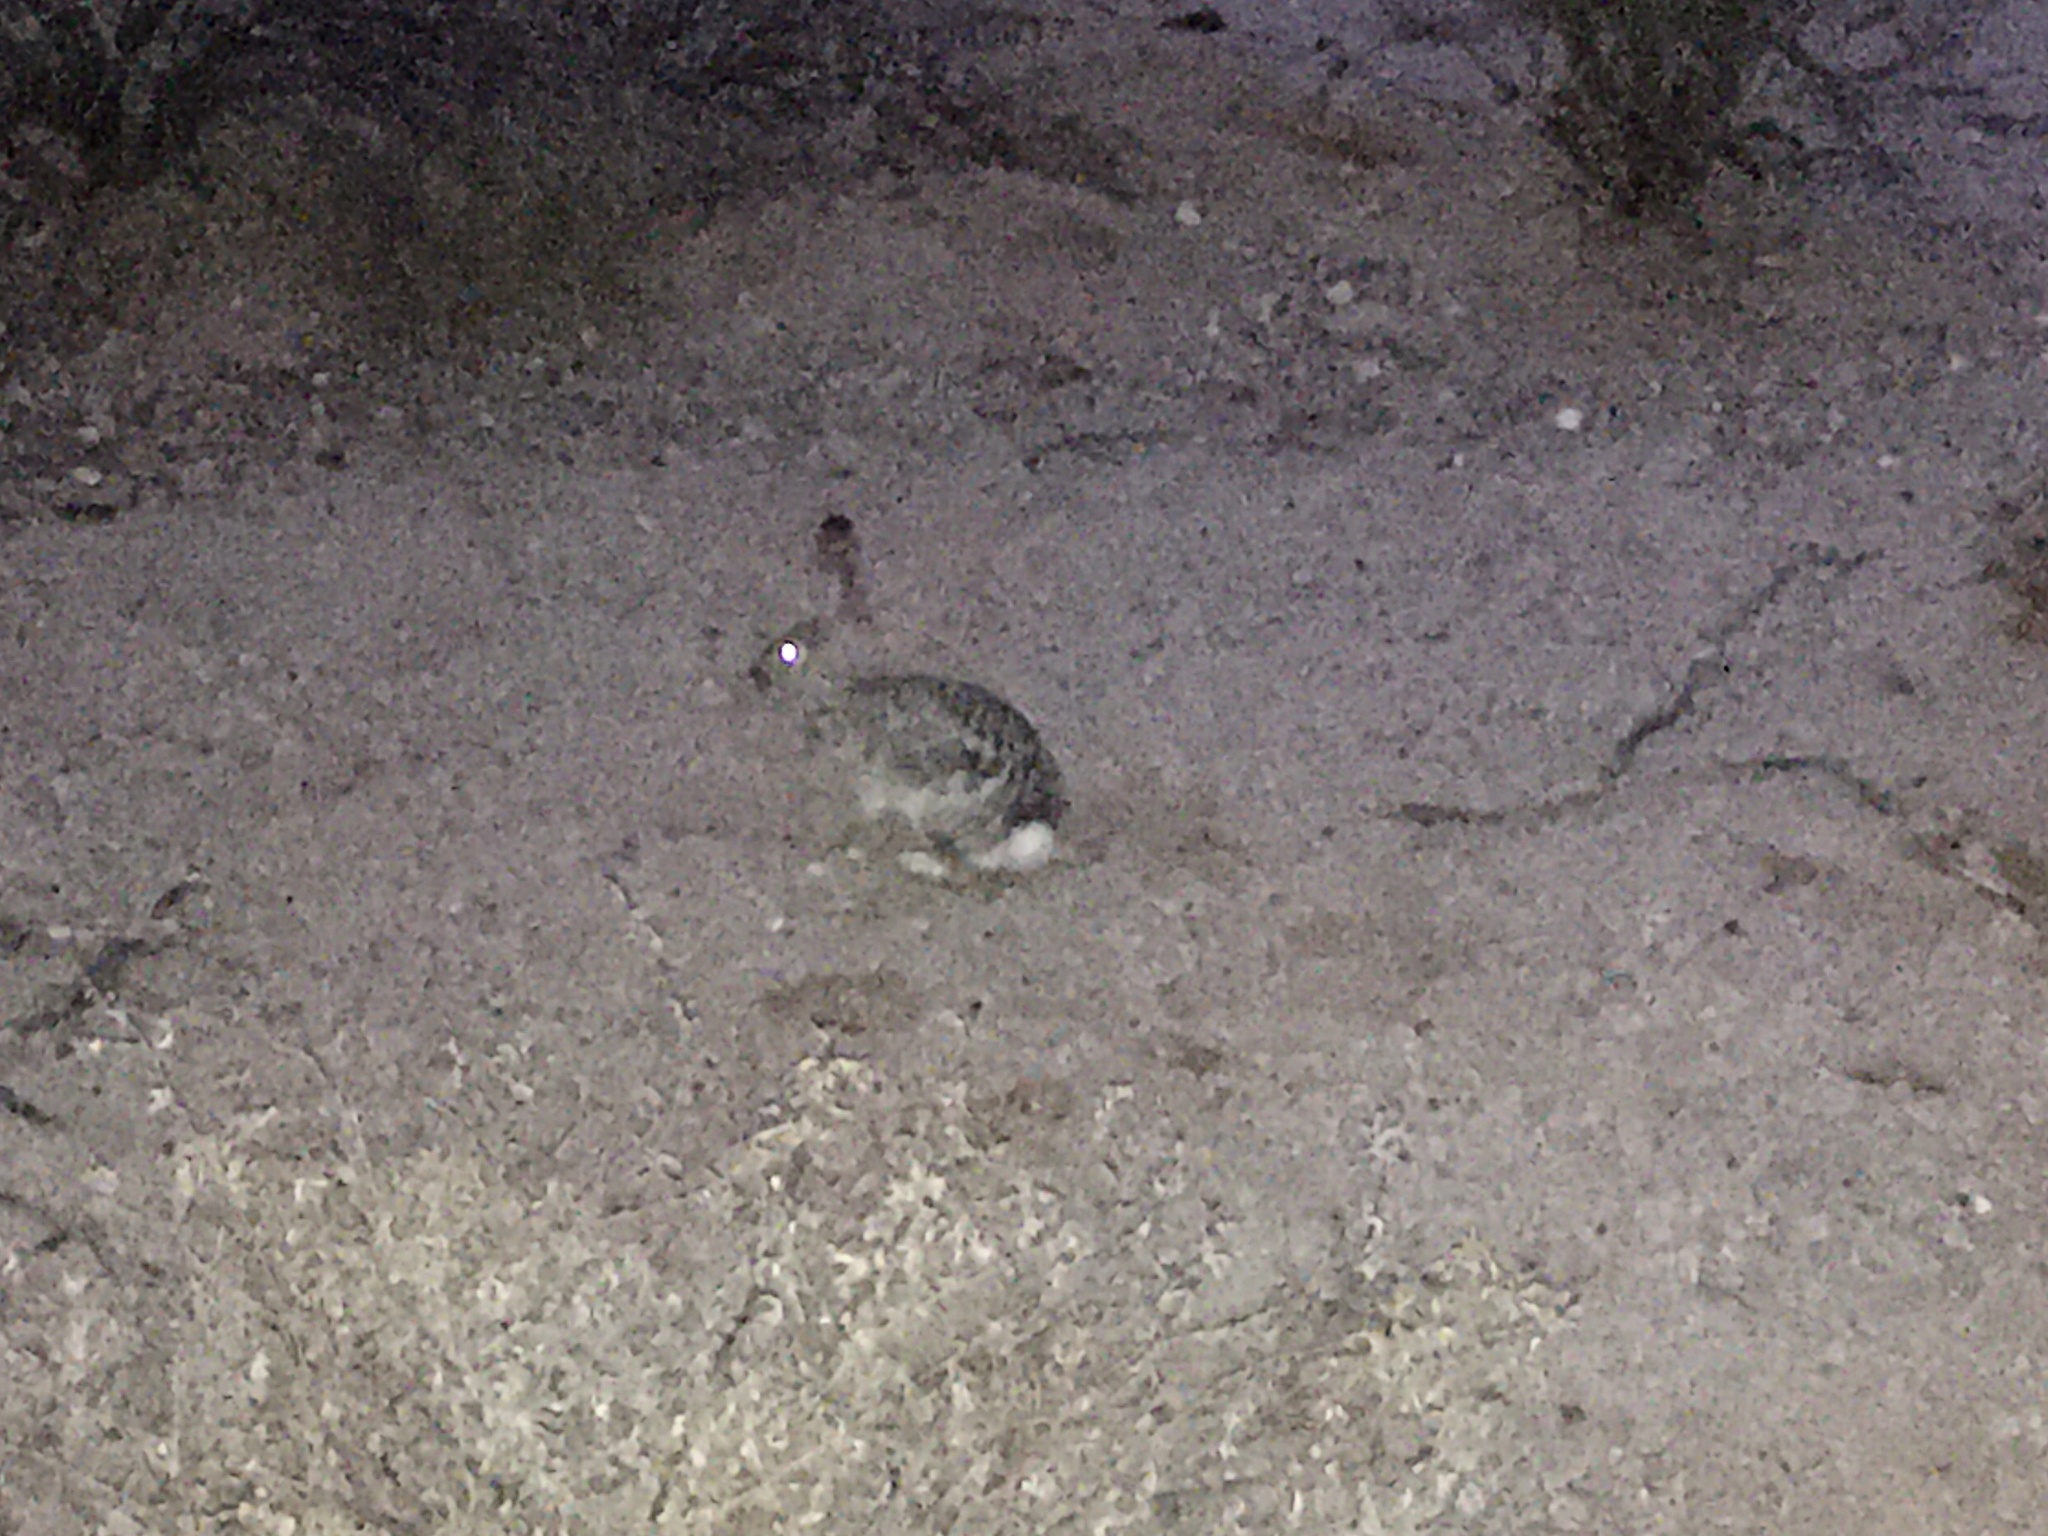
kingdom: Animalia
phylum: Chordata
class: Mammalia
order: Lagomorpha
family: Leporidae
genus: Sylvilagus
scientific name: Sylvilagus audubonii
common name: Desert cottontail
